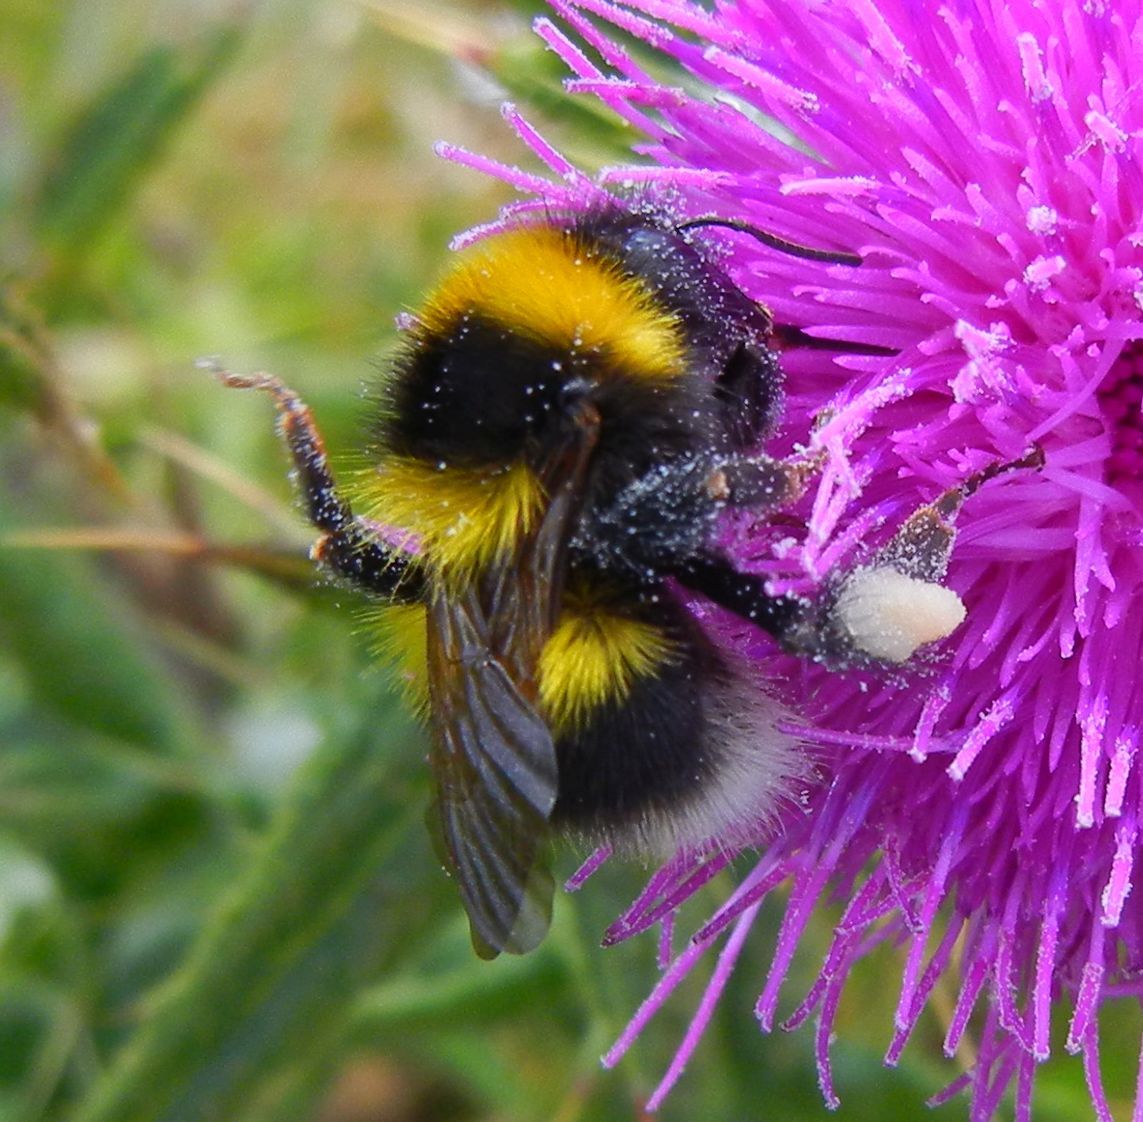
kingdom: Animalia
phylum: Arthropoda
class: Insecta
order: Hymenoptera
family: Apidae
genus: Bombus
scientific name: Bombus hortorum
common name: Garden bumblebee
